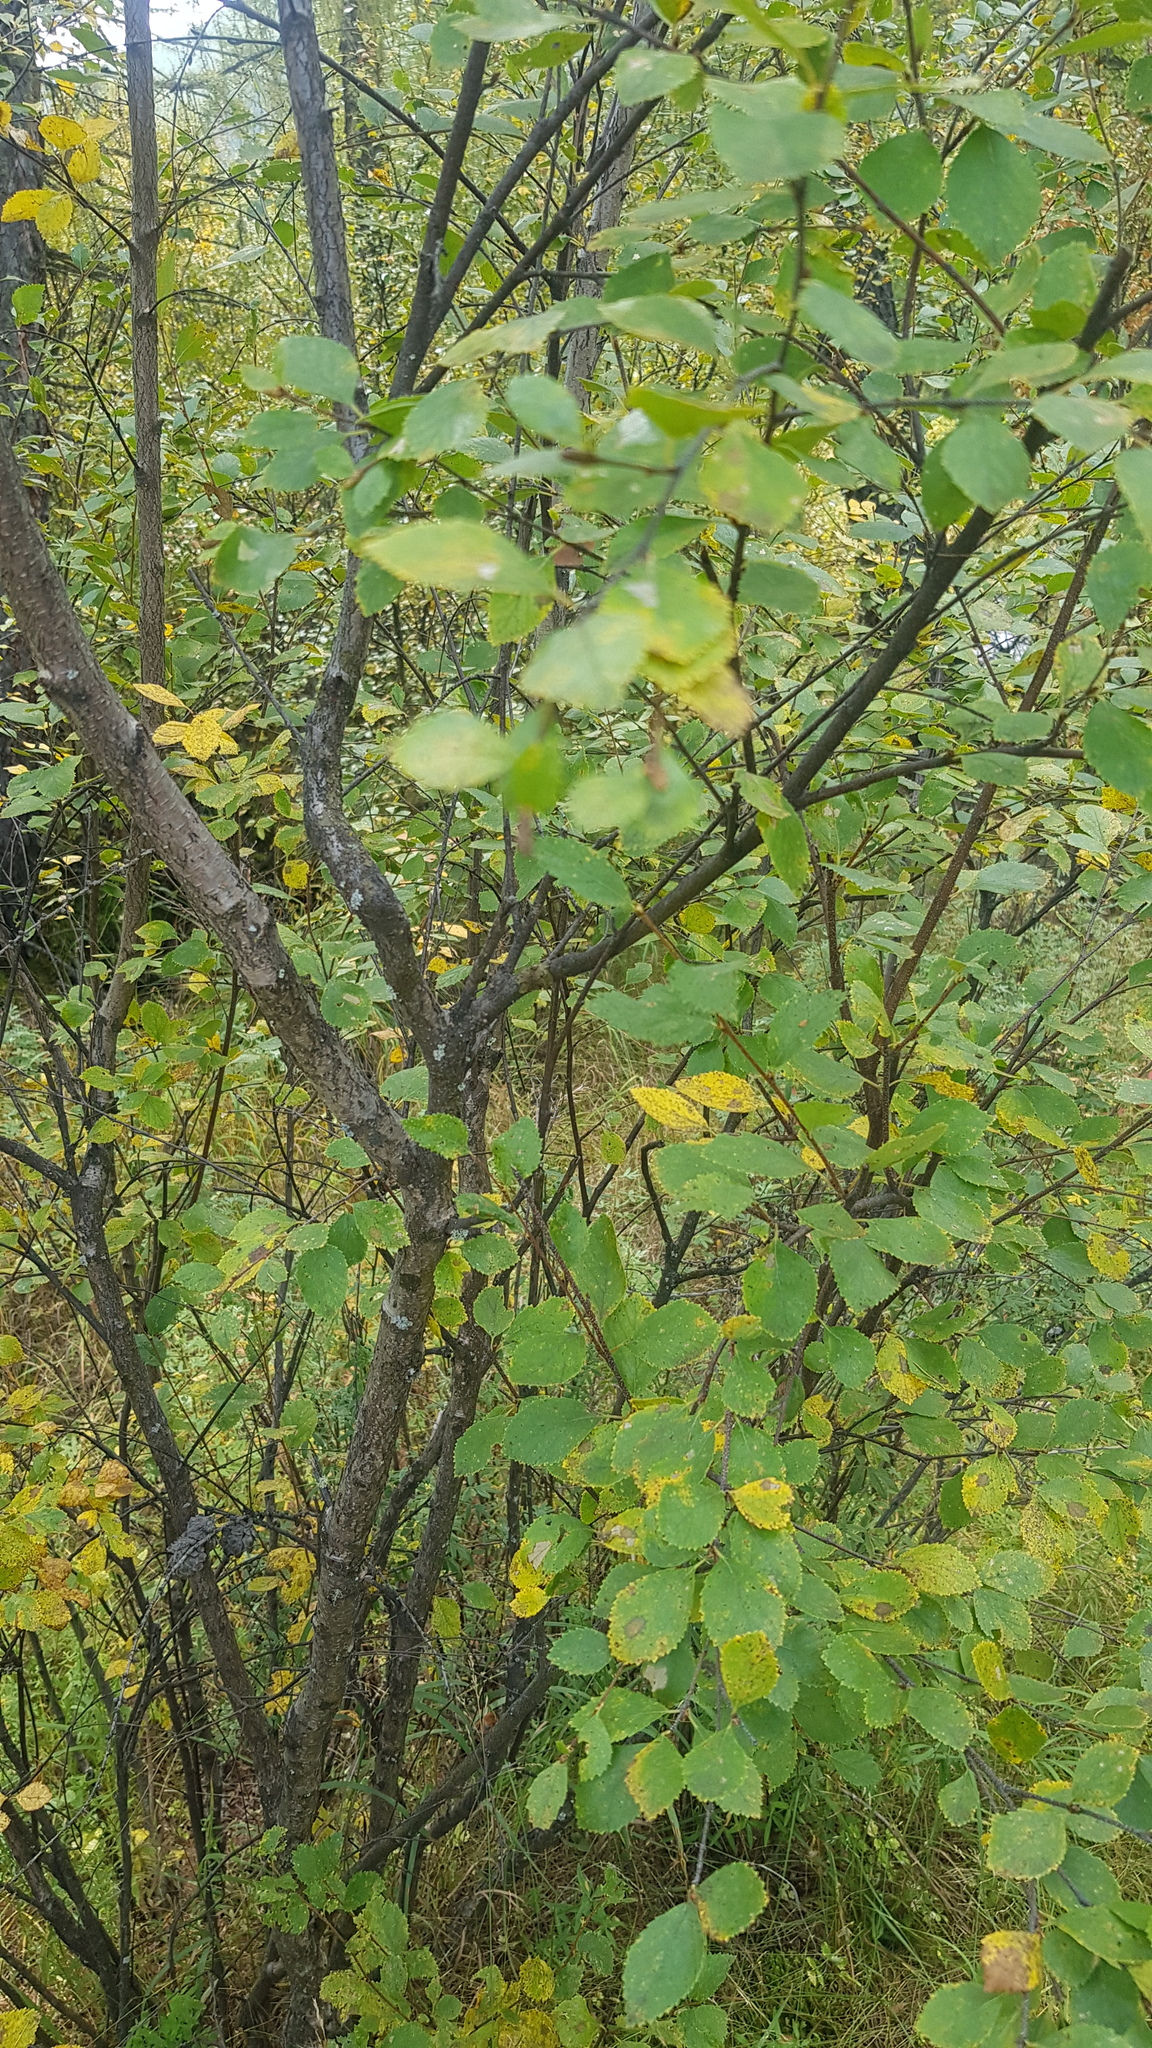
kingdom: Plantae
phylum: Tracheophyta
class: Magnoliopsida
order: Fagales
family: Betulaceae
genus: Betula
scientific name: Betula humilis
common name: Shrubby birch
